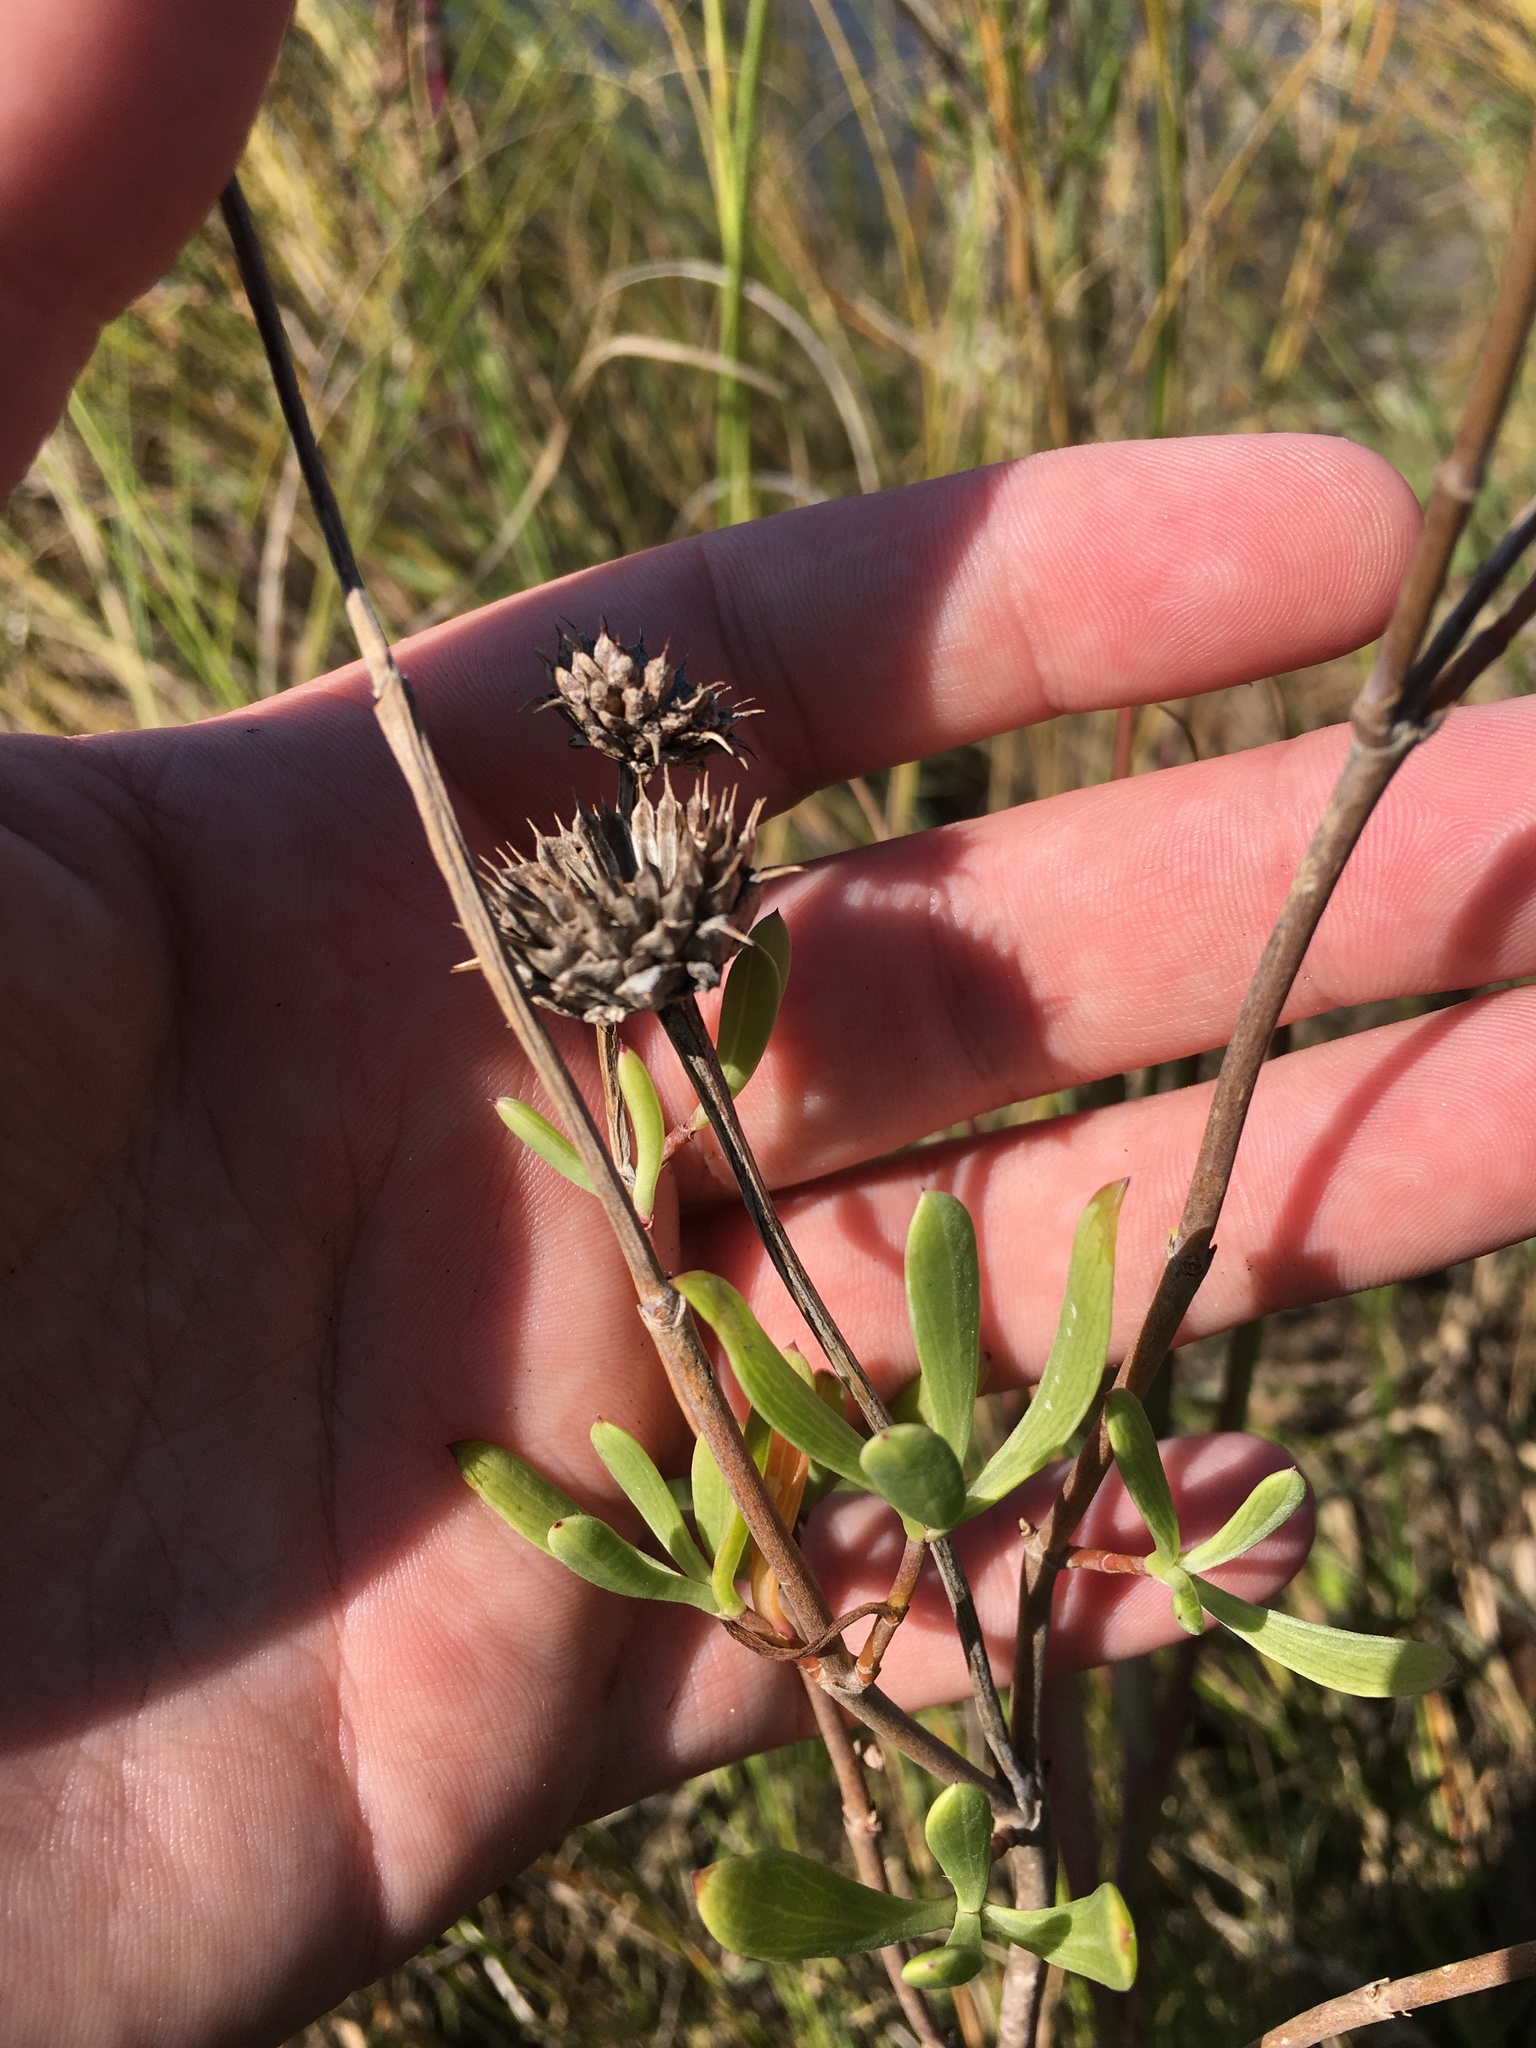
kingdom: Plantae
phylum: Tracheophyta
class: Magnoliopsida
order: Asterales
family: Asteraceae
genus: Borrichia
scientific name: Borrichia frutescens
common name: Sea oxeye
